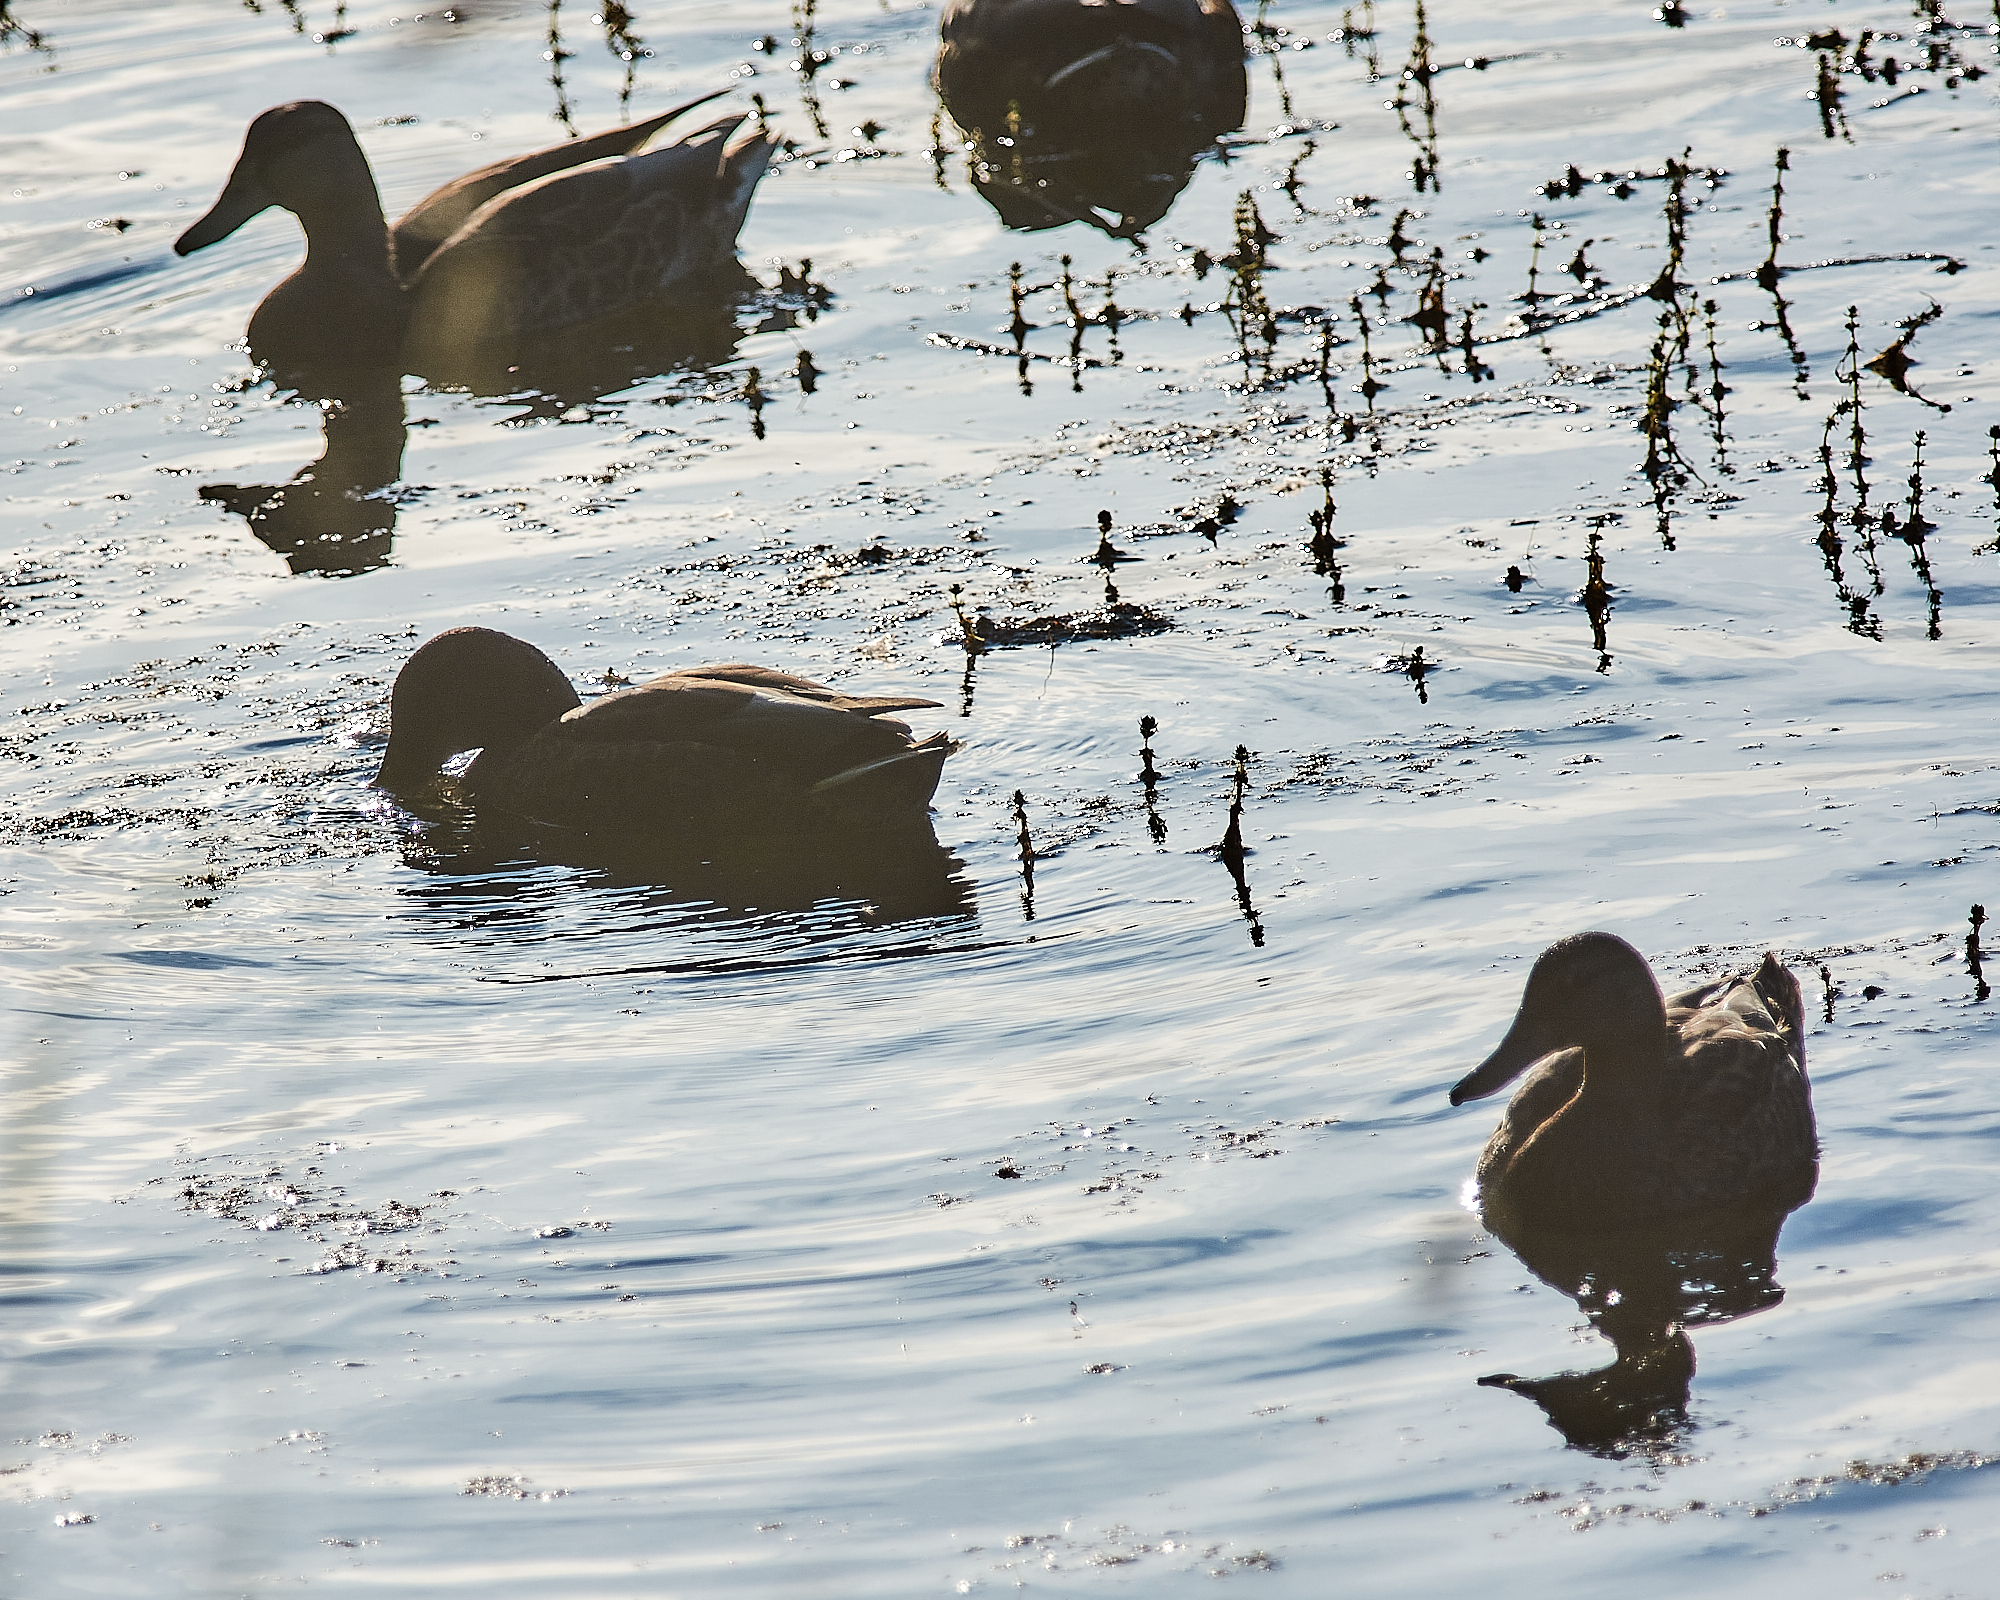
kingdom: Animalia
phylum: Chordata
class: Aves
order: Anseriformes
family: Anatidae
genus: Anas
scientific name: Anas platyrhynchos
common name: Mallard
